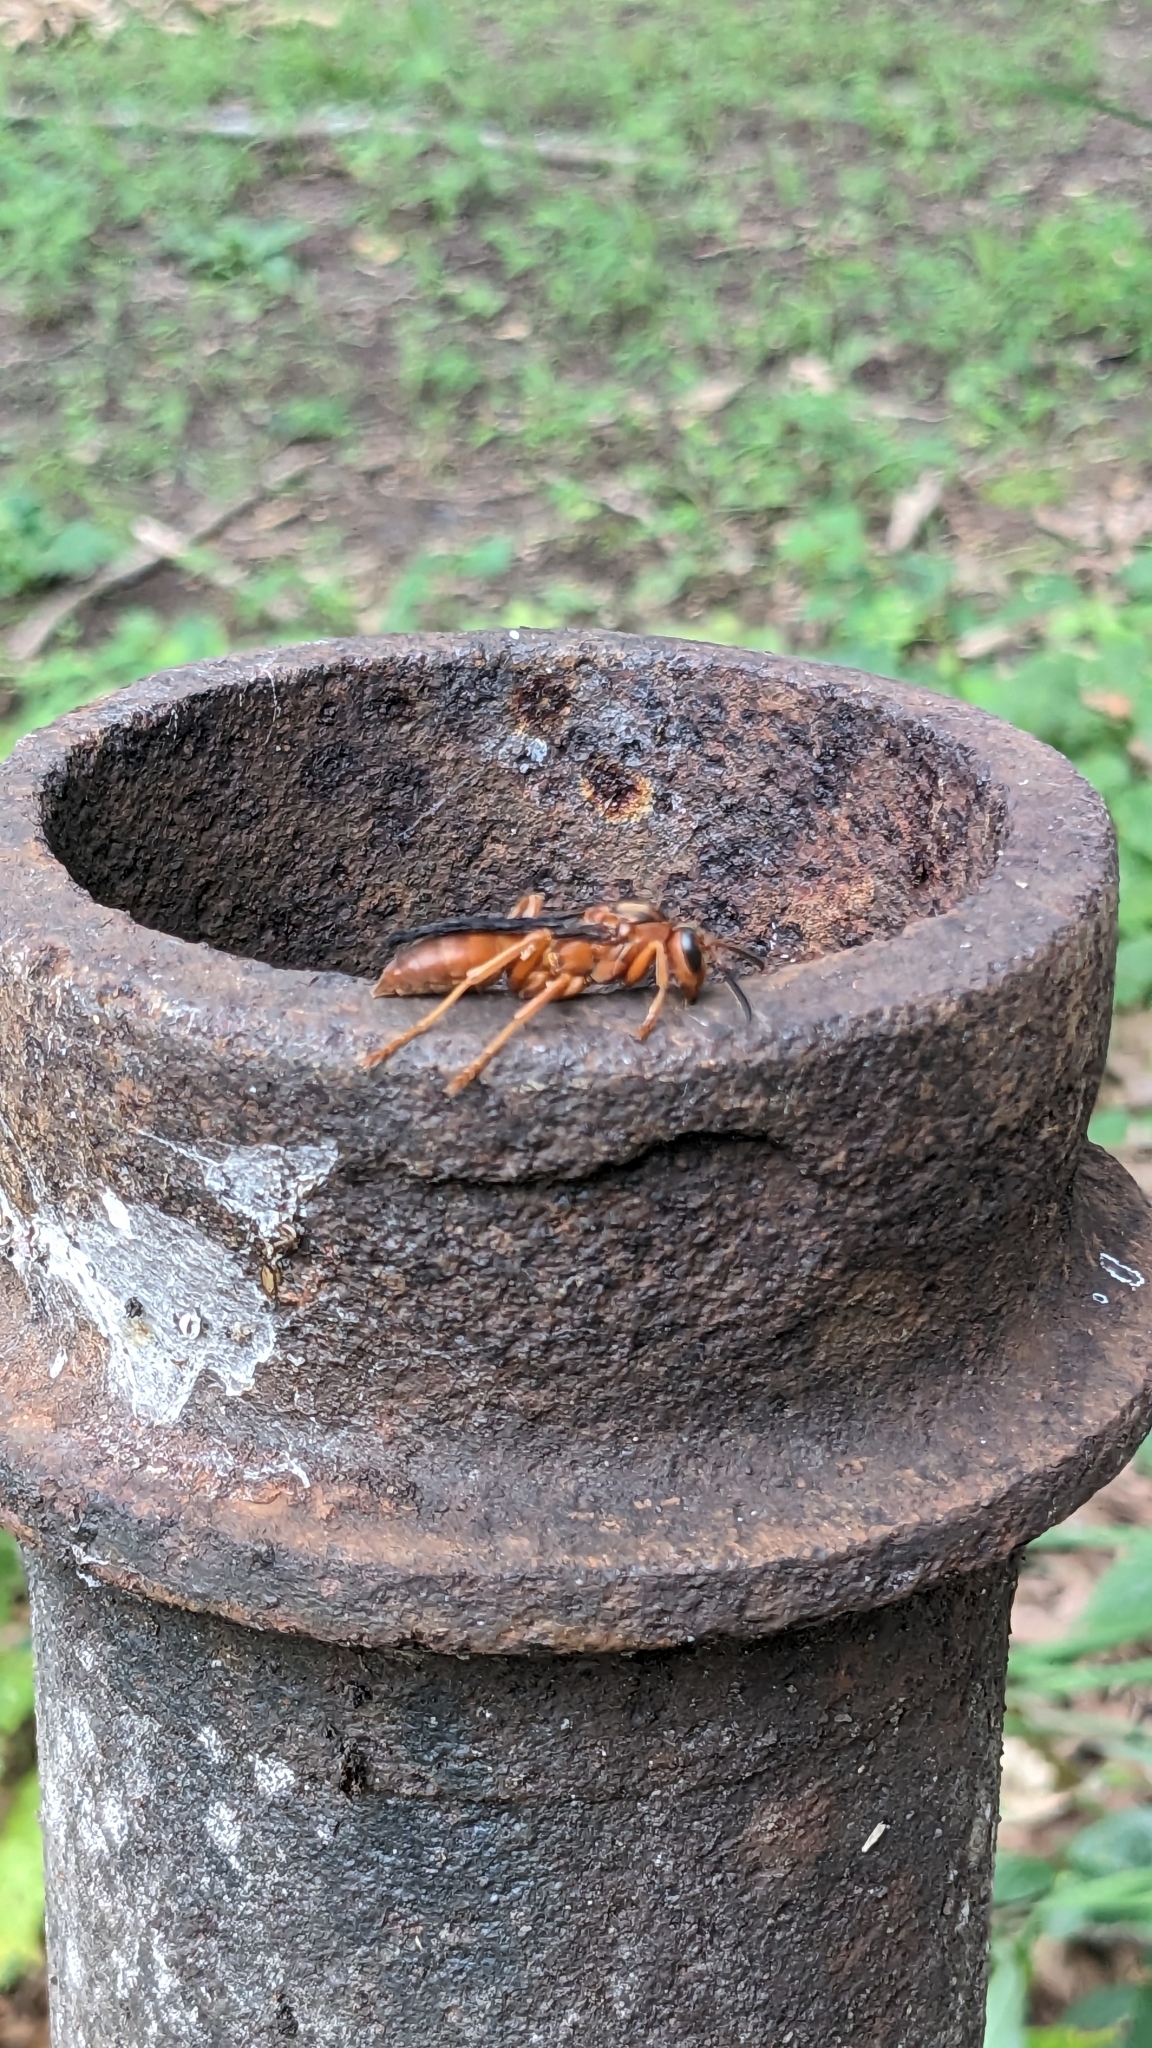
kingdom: Animalia
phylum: Arthropoda
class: Insecta
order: Hymenoptera
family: Vespidae
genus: Fuscopolistes
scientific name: Fuscopolistes
